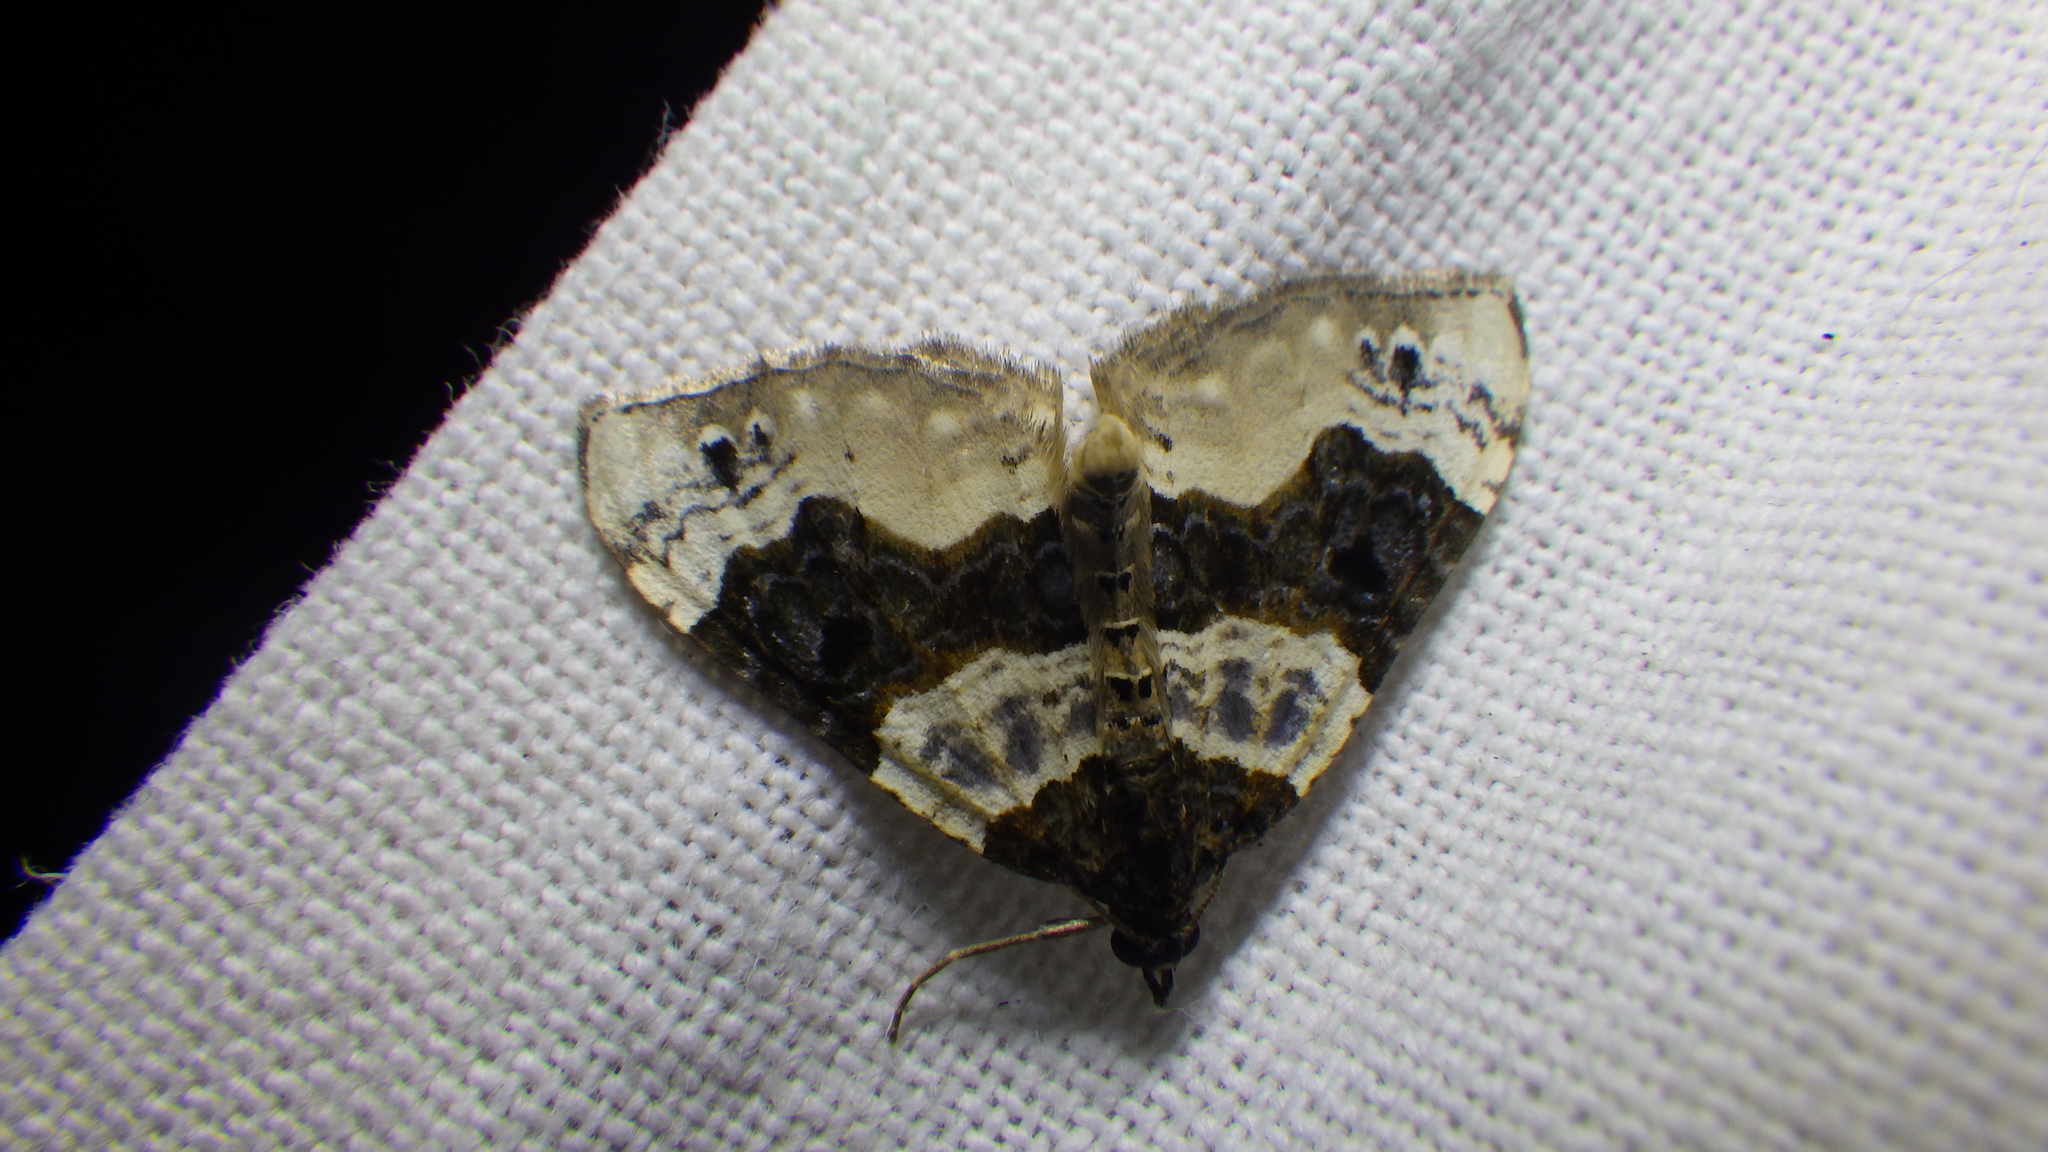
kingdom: Animalia
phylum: Arthropoda
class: Insecta
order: Lepidoptera
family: Geometridae
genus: Cosmorhoe
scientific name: Cosmorhoe ocellata
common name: Purple bar
